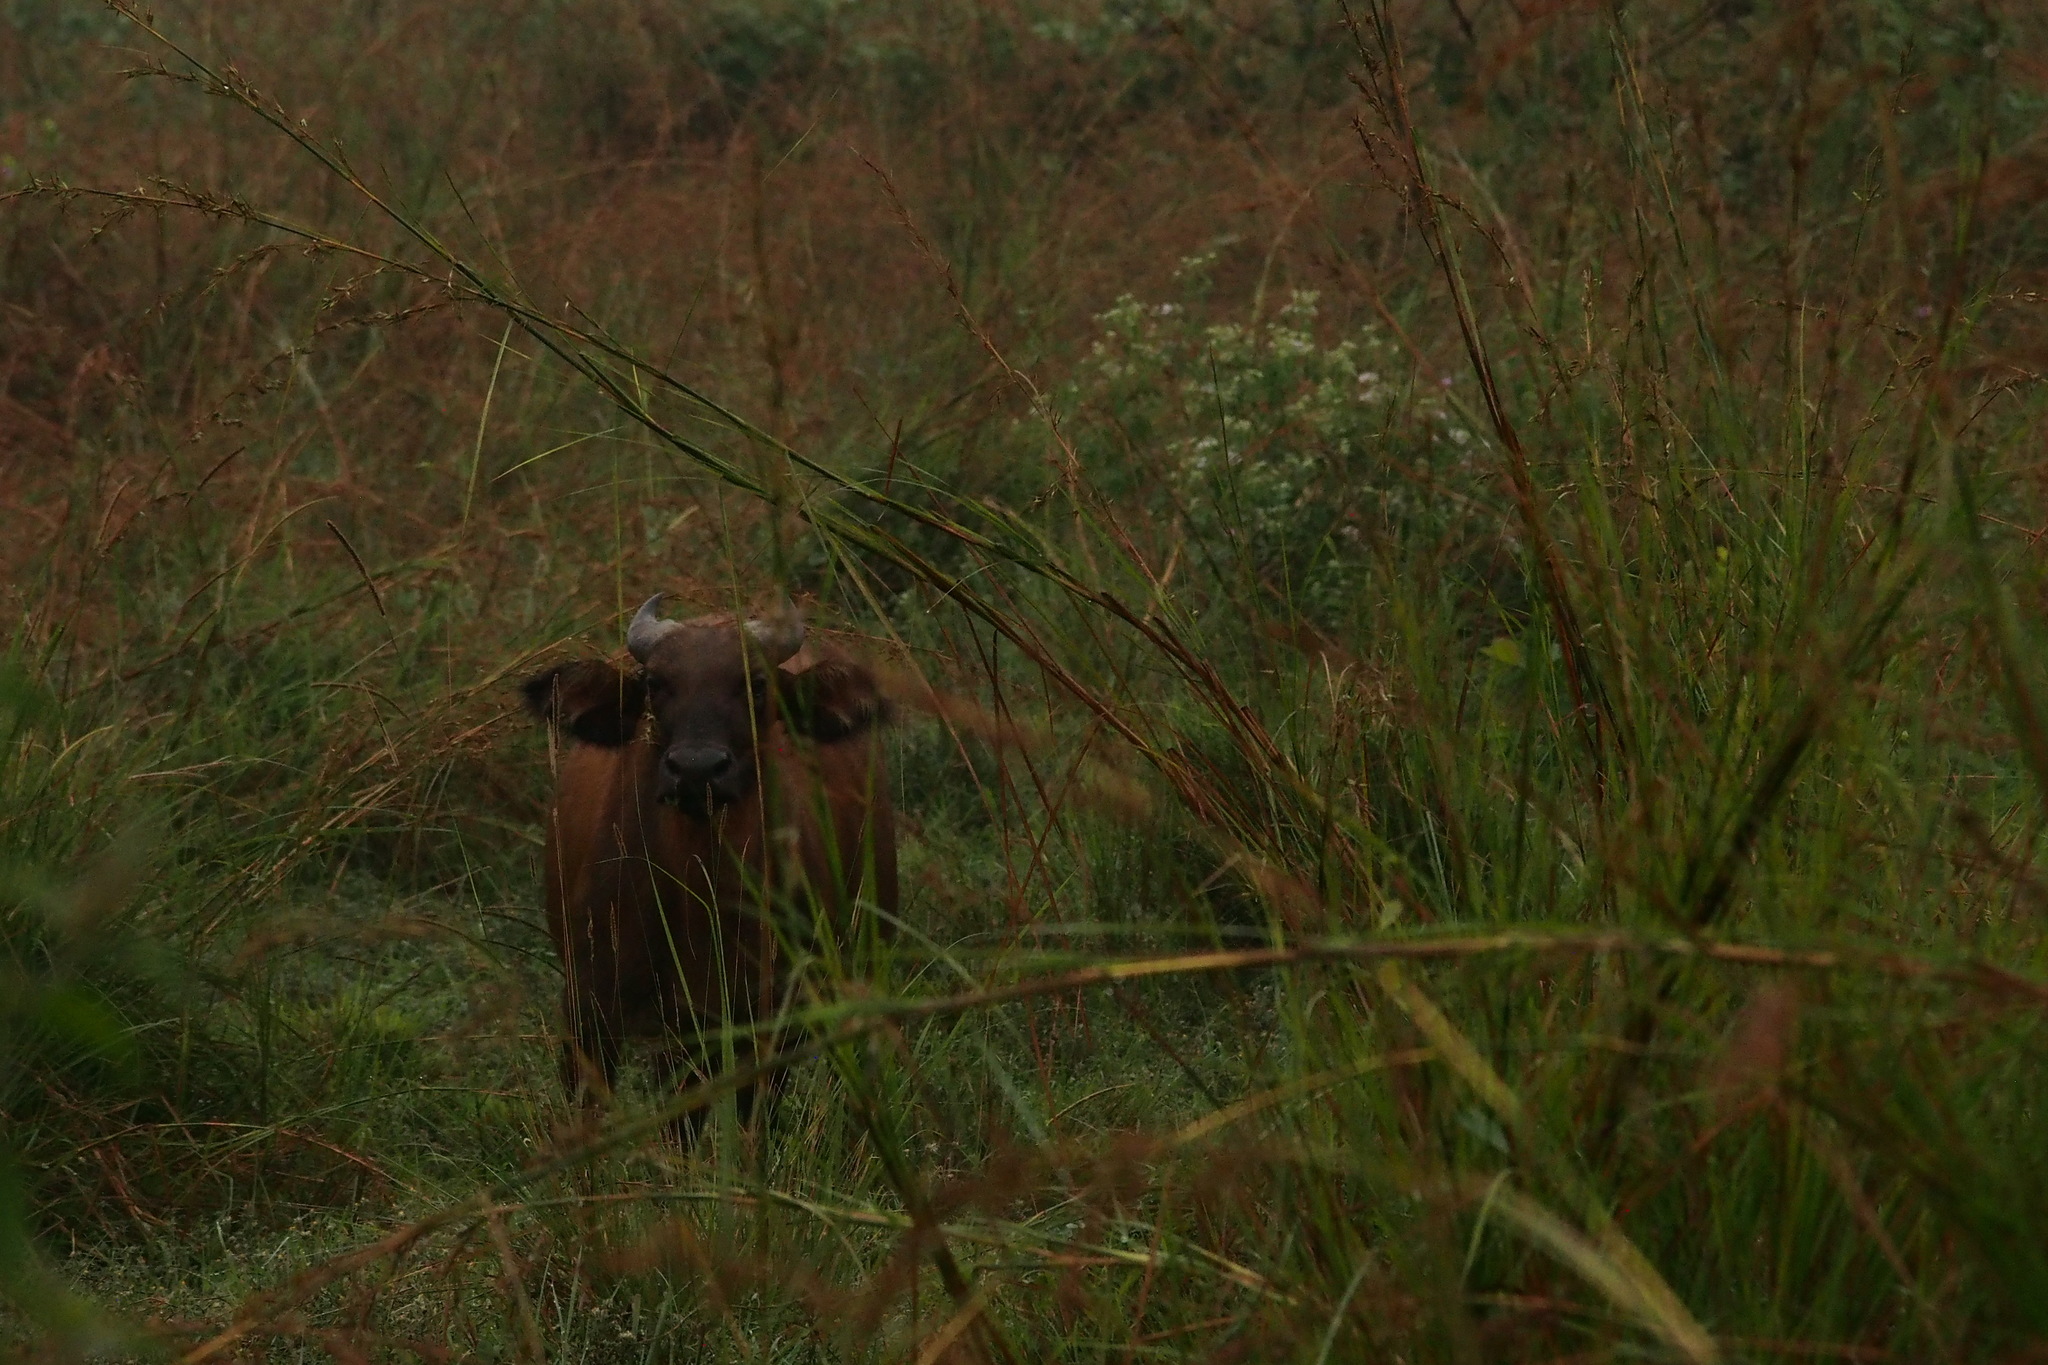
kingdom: Animalia
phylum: Chordata
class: Mammalia
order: Artiodactyla
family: Bovidae
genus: Syncerus
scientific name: Syncerus caffer
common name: African buffalo
